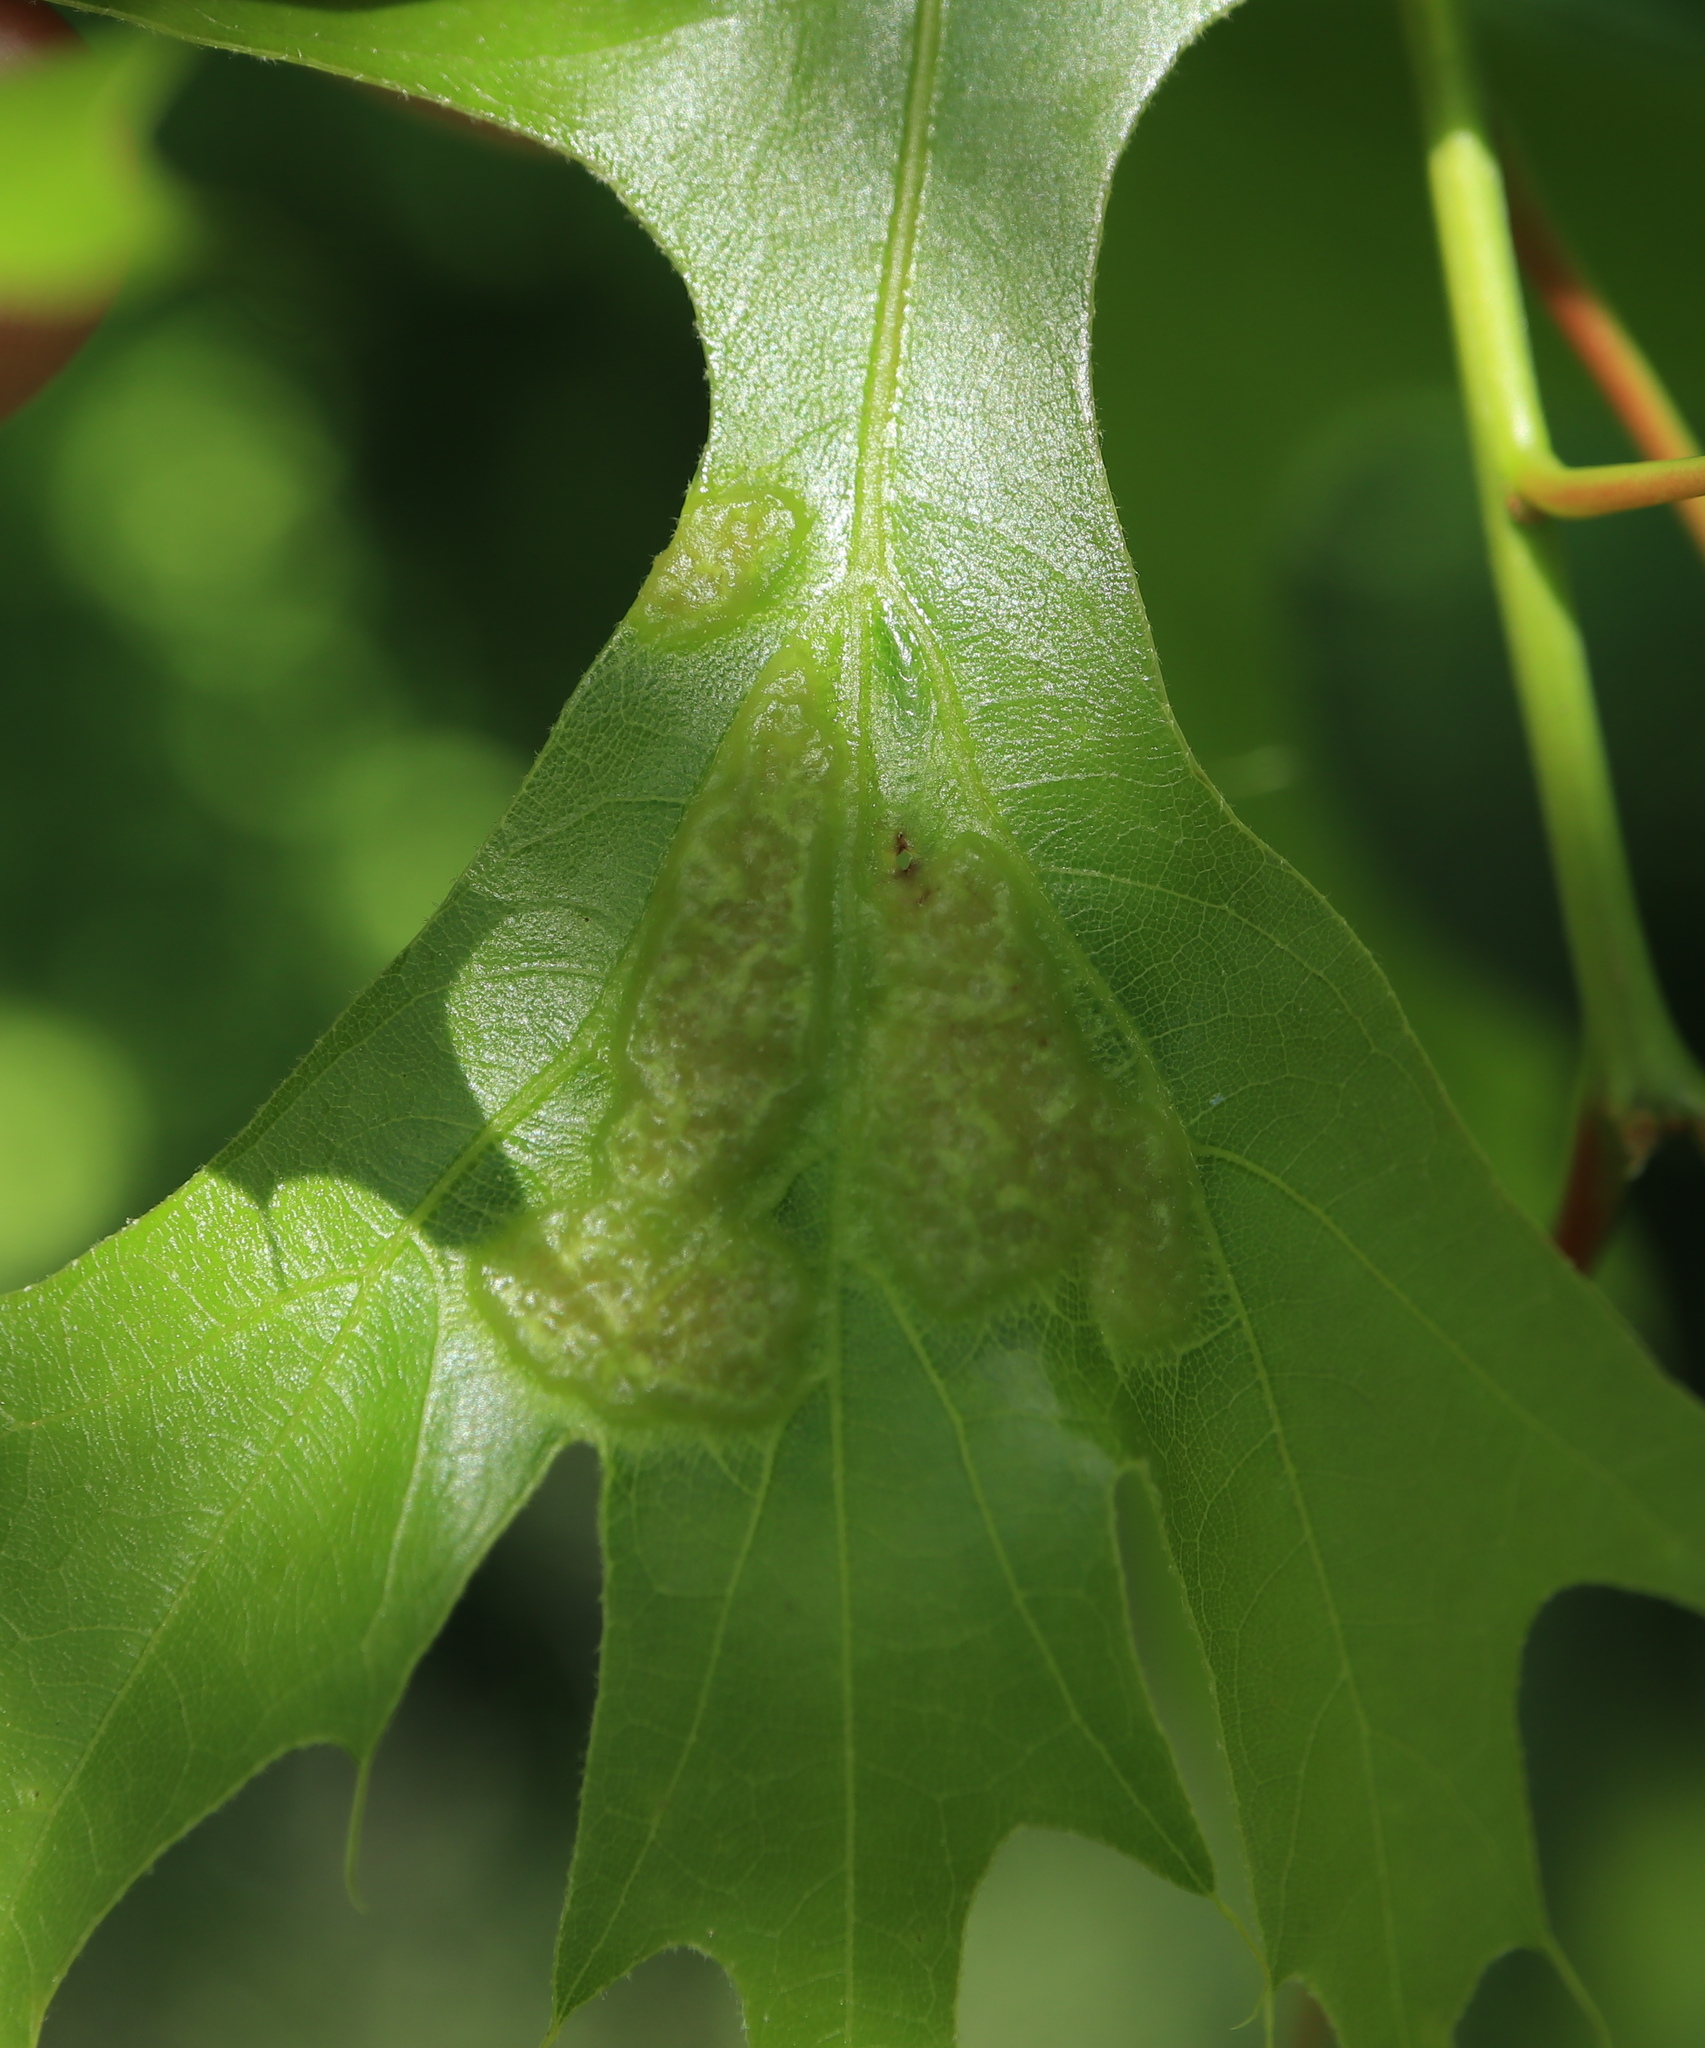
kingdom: Animalia
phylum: Arthropoda
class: Insecta
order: Hymenoptera
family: Cynipidae
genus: Melikaiella
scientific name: Melikaiella ostensackeni
